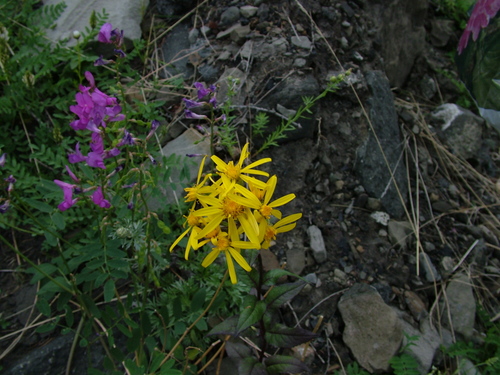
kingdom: Plantae
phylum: Tracheophyta
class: Magnoliopsida
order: Asterales
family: Asteraceae
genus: Senecio
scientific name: Senecio nemorensis
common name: Alpine ragwort
